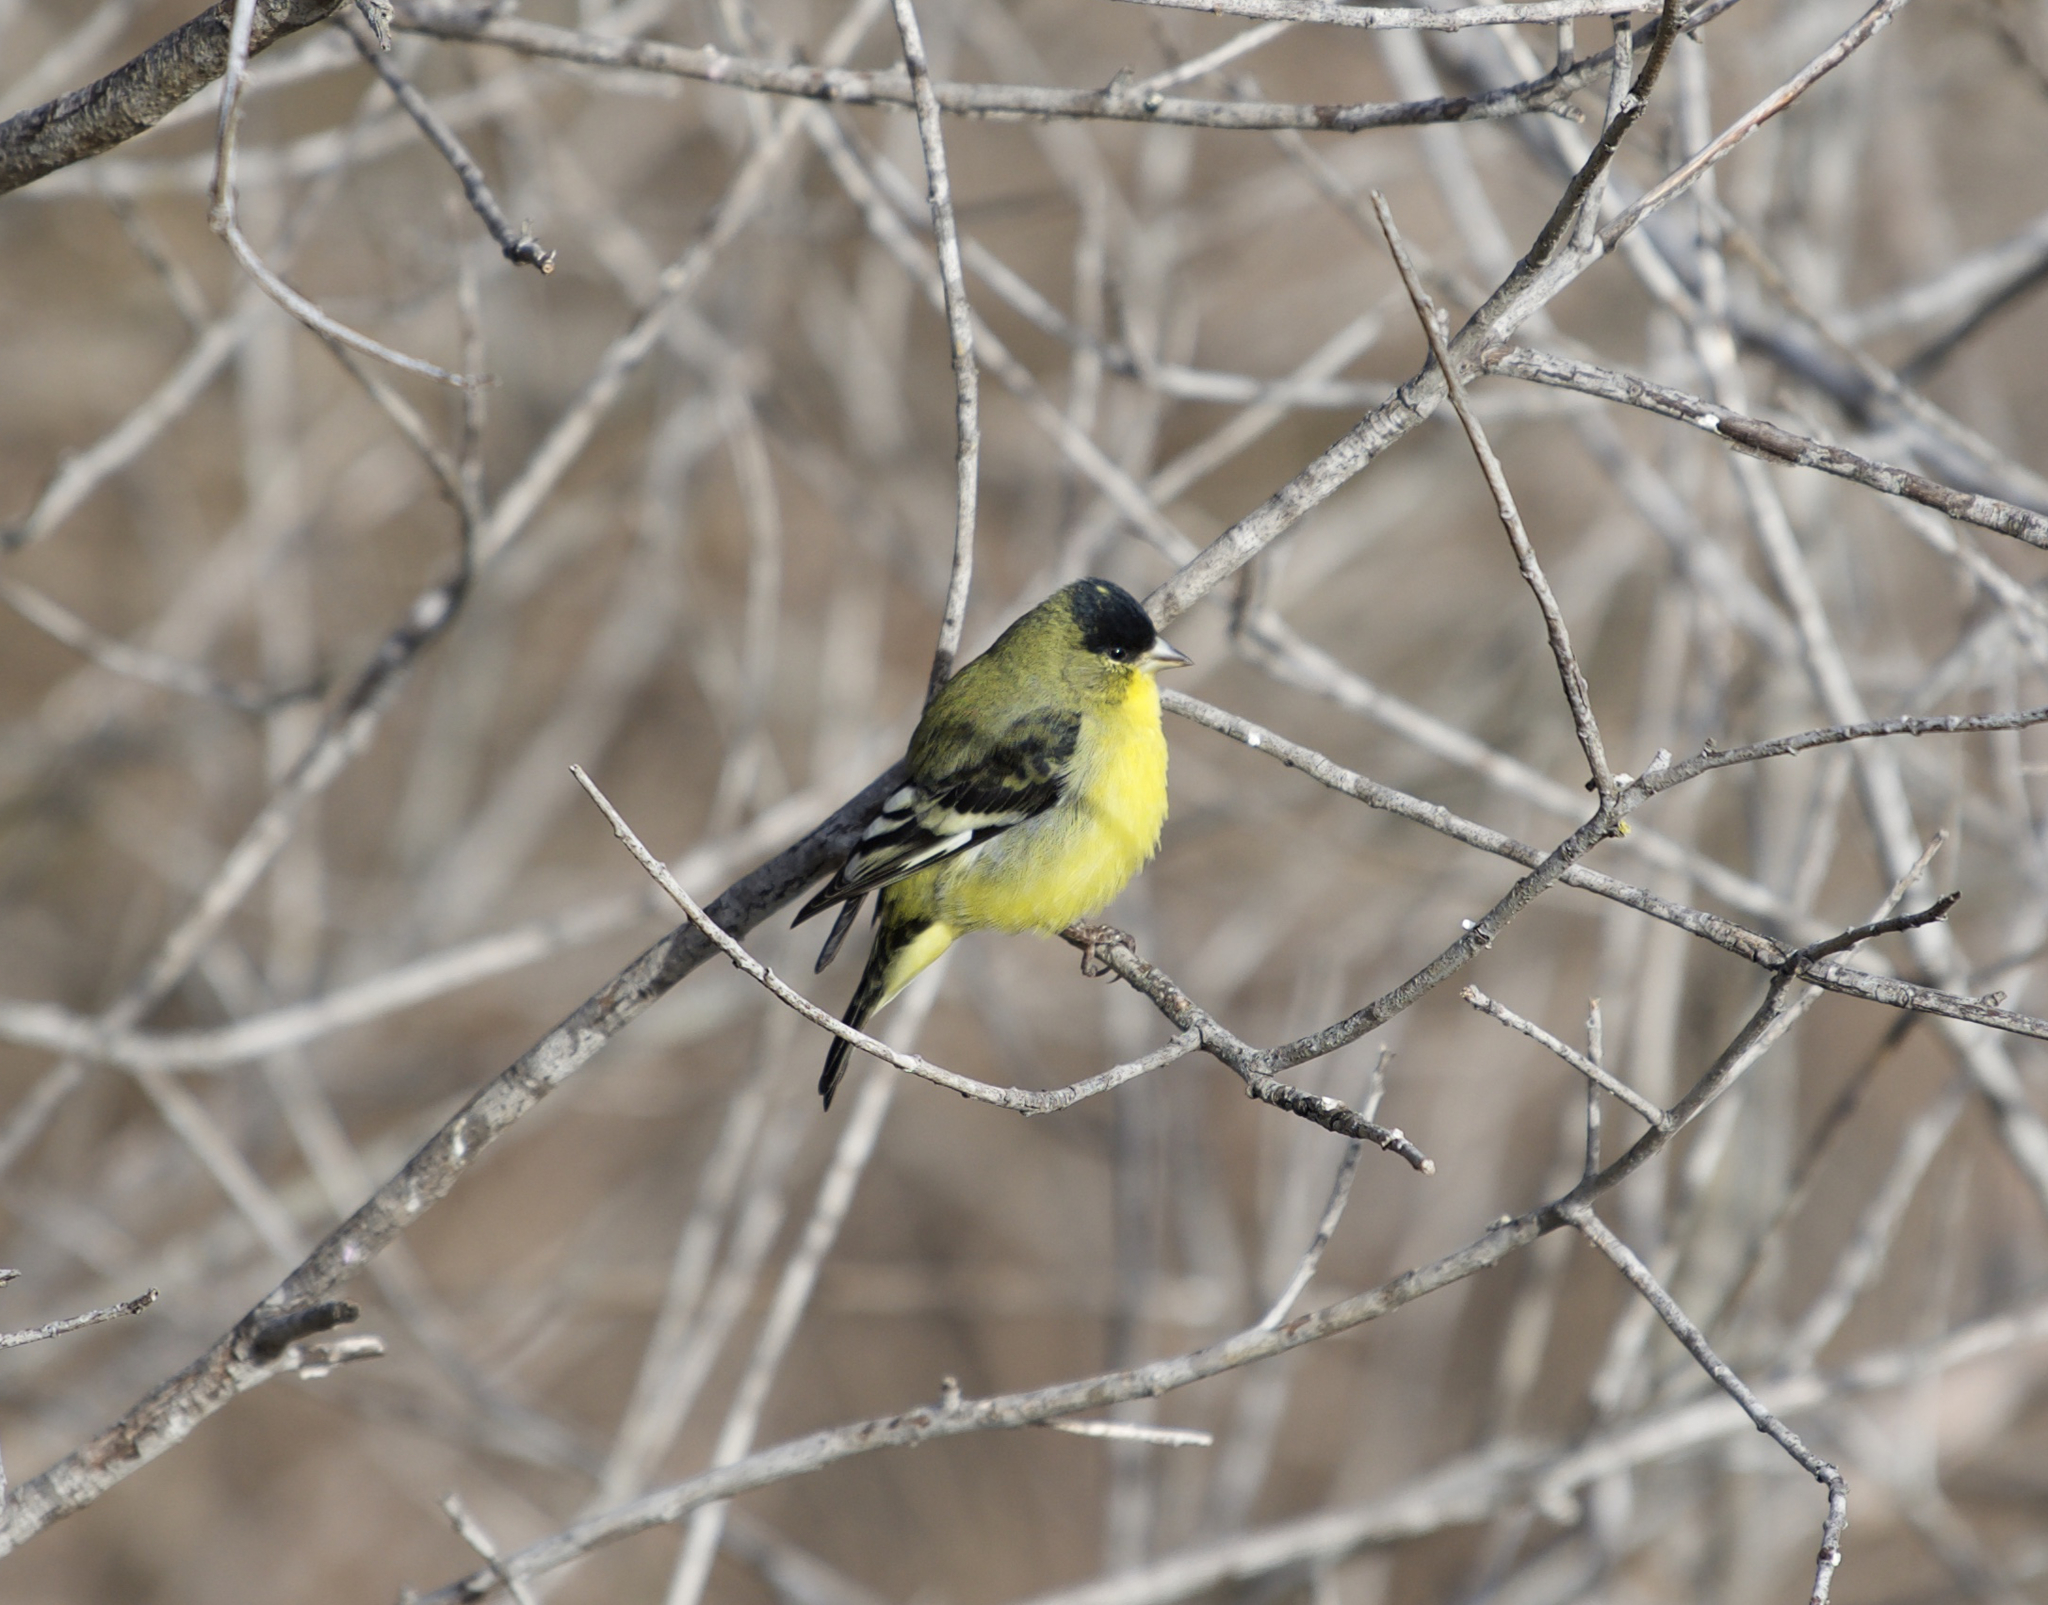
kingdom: Animalia
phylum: Chordata
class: Aves
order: Passeriformes
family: Fringillidae
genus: Spinus
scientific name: Spinus psaltria
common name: Lesser goldfinch
